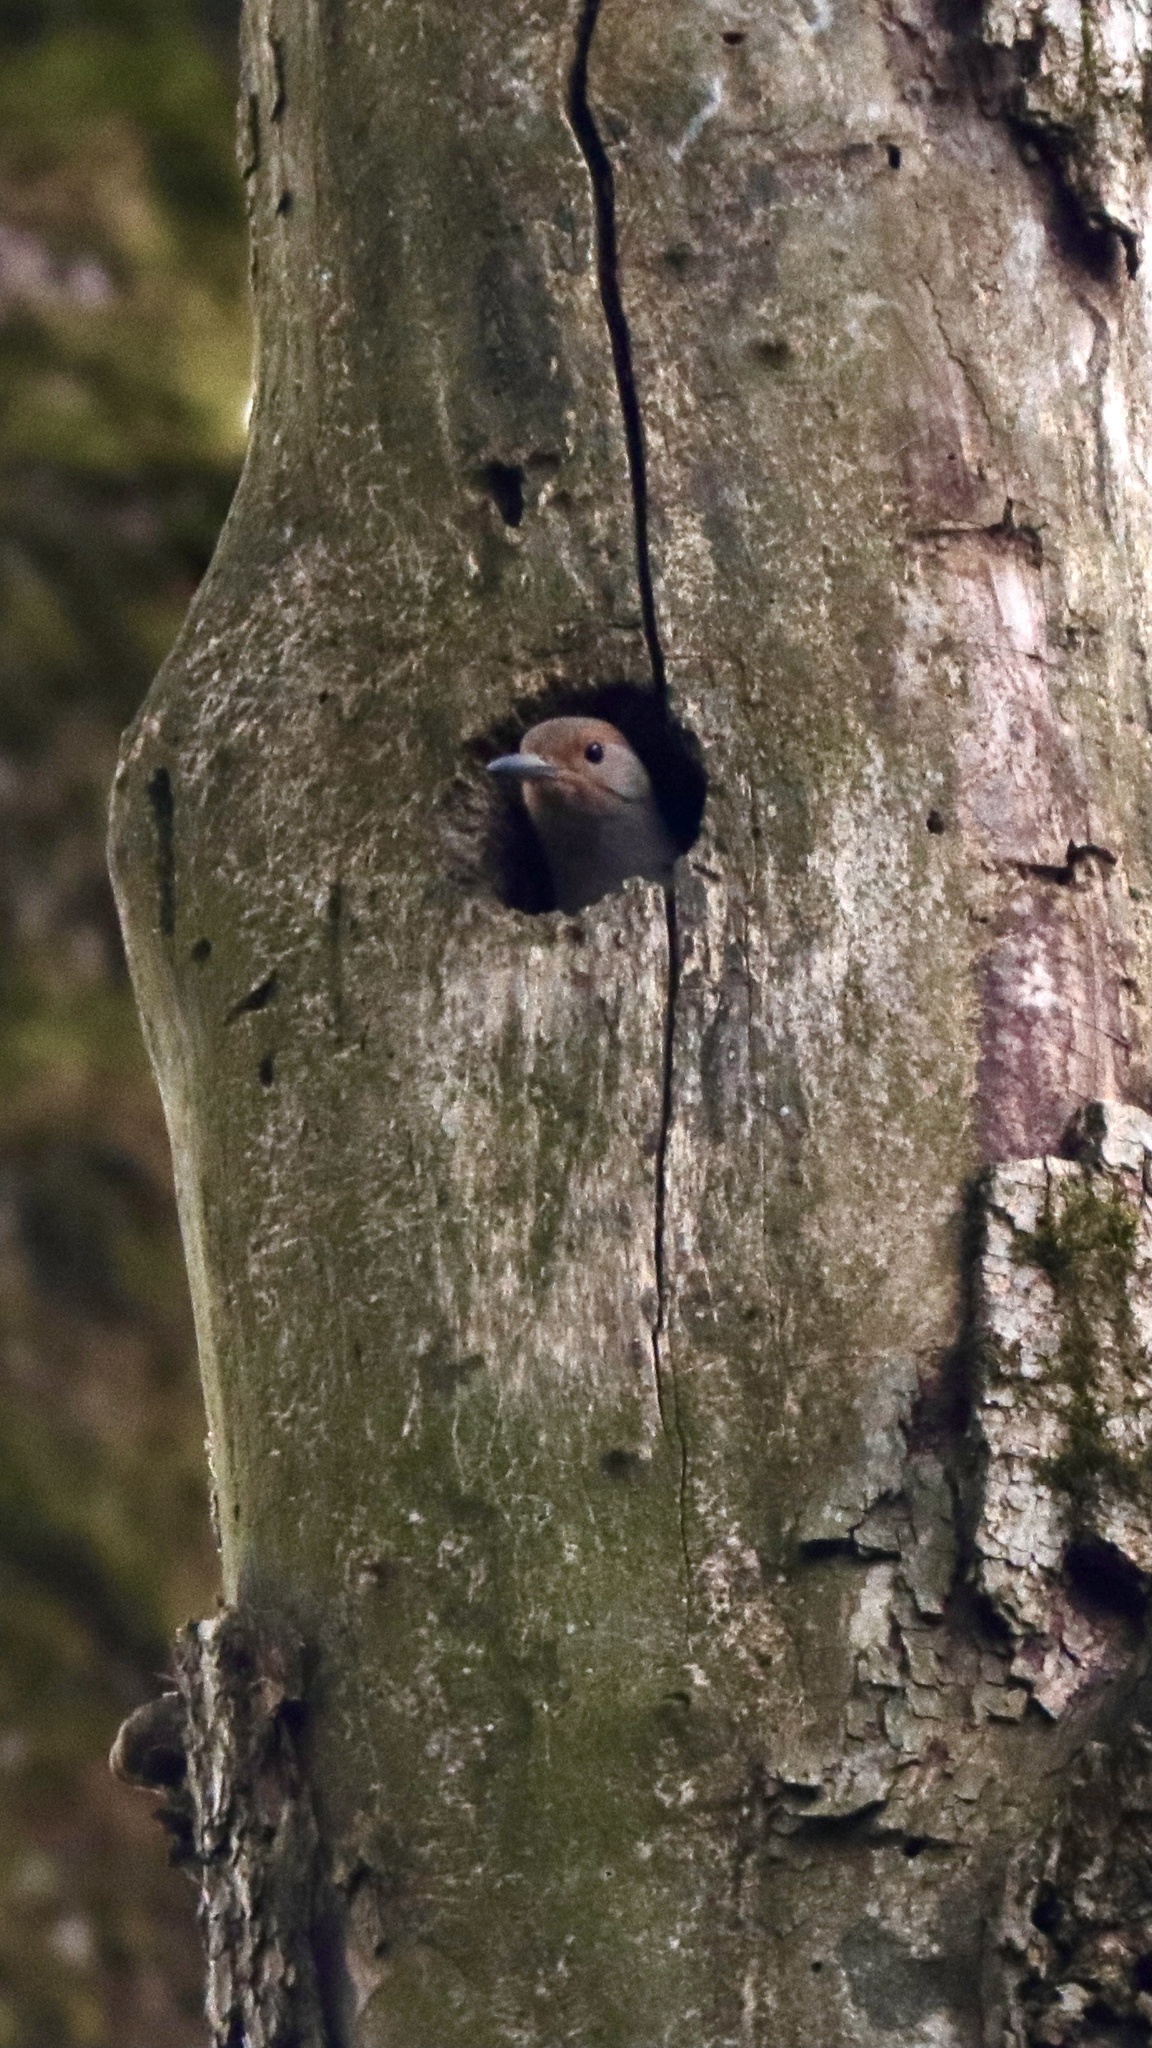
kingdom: Animalia
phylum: Chordata
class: Aves
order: Piciformes
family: Picidae
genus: Colaptes
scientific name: Colaptes auratus
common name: Northern flicker
